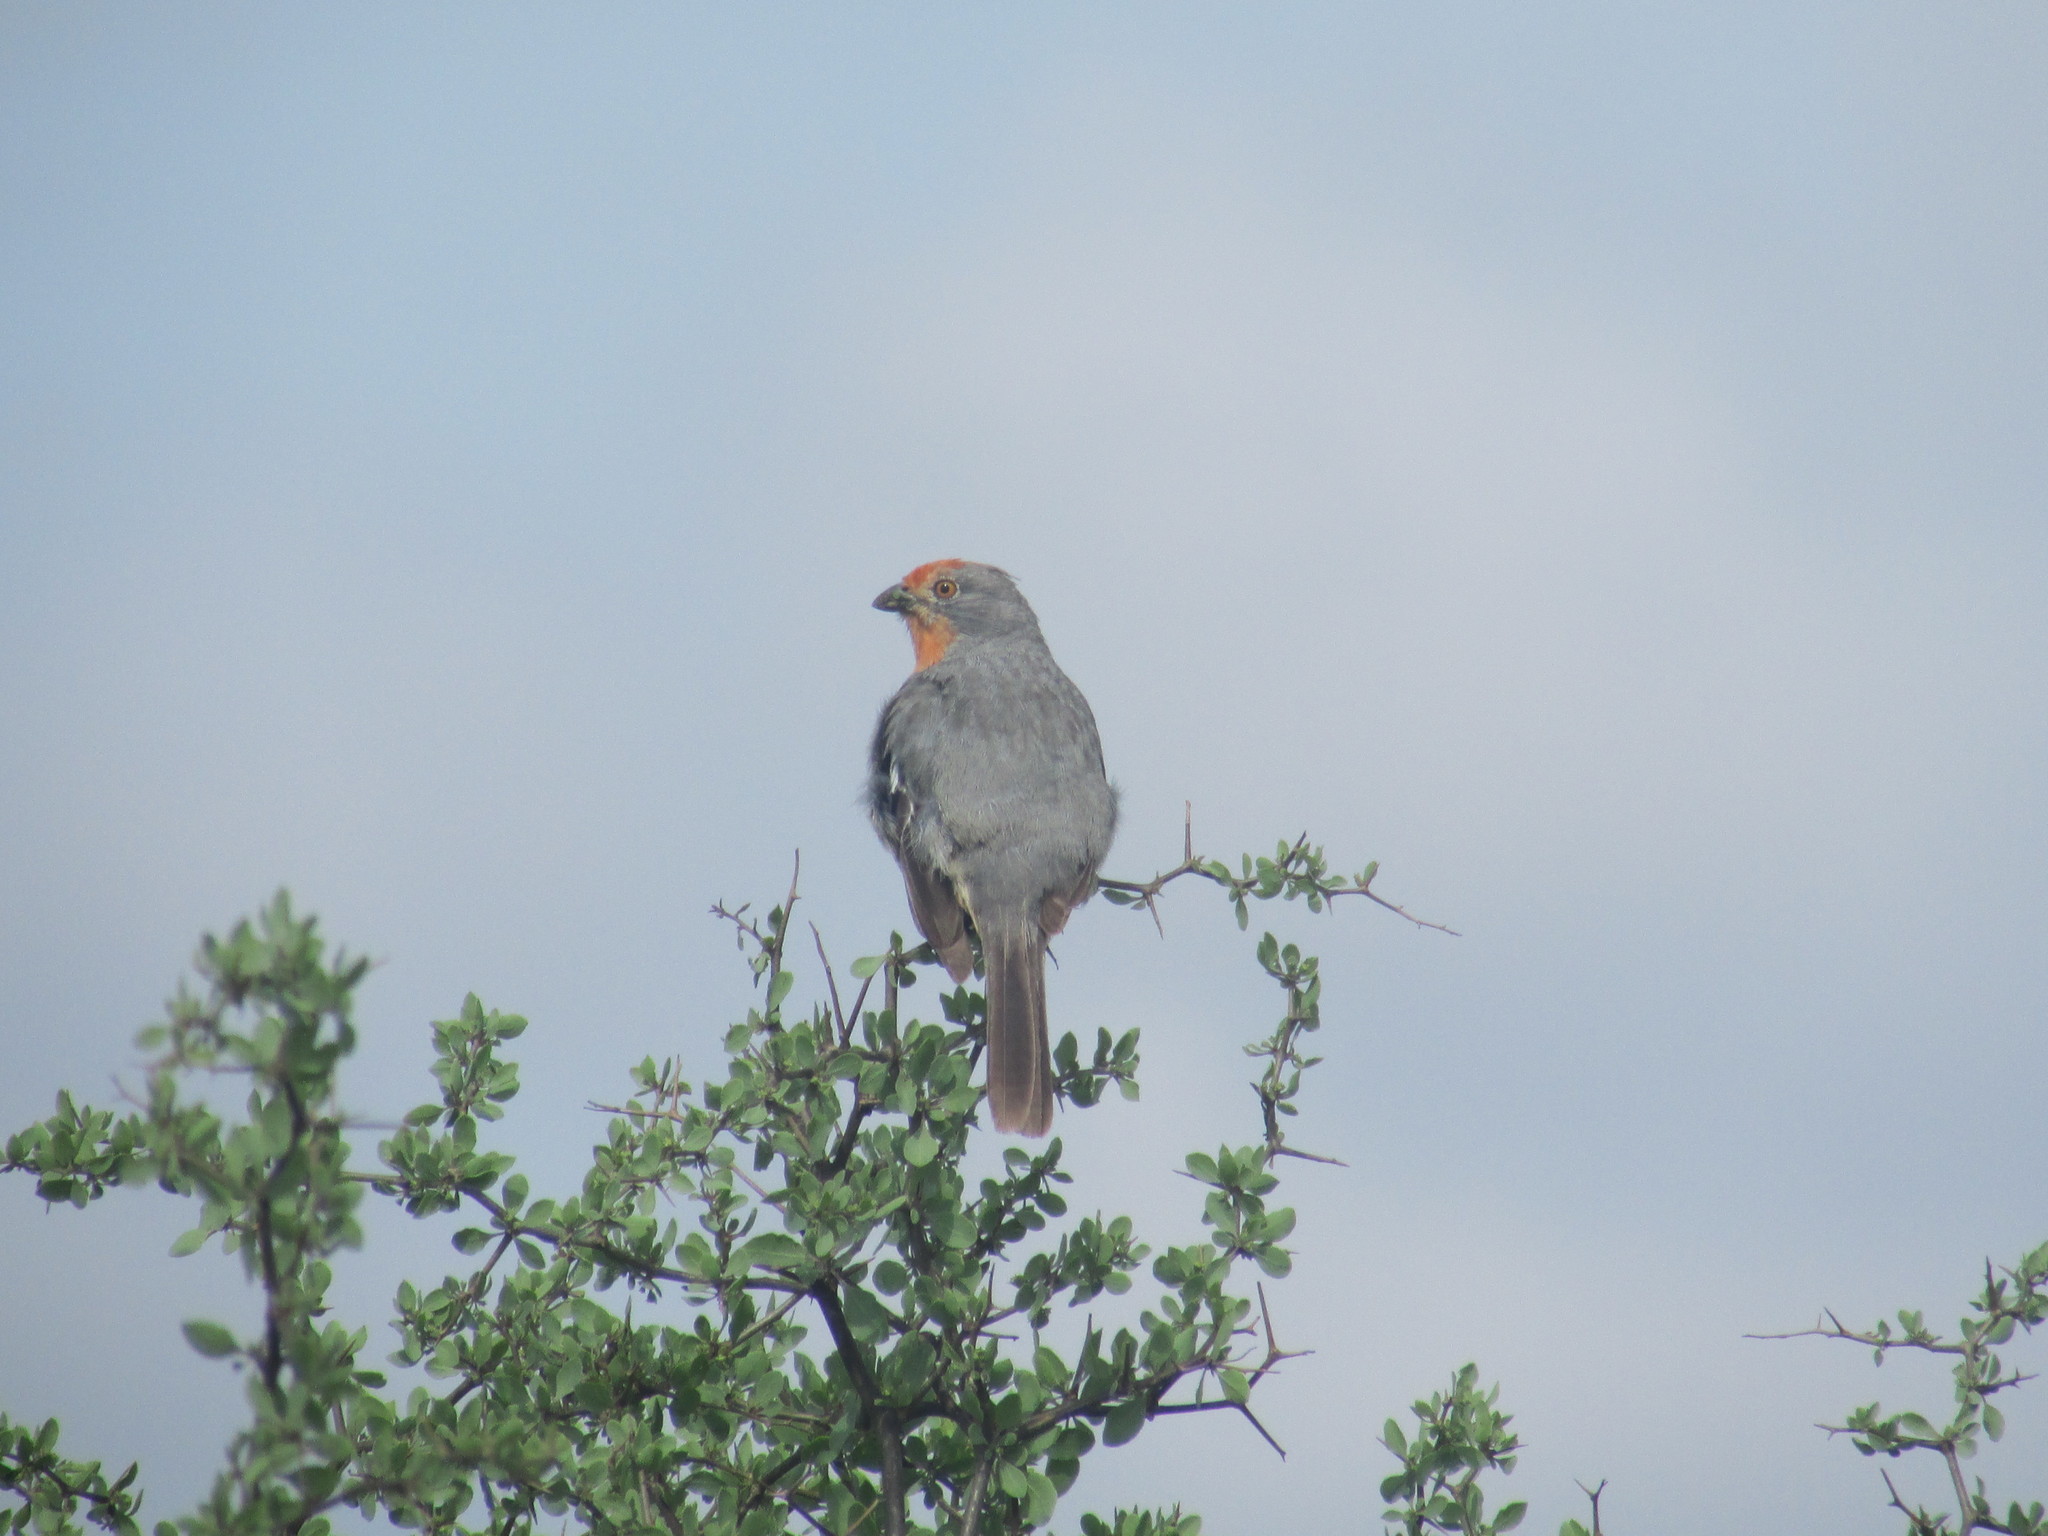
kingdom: Animalia
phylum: Chordata
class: Aves
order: Passeriformes
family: Cotingidae
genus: Phytotoma
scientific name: Phytotoma rutila
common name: White-tipped plantcutter
